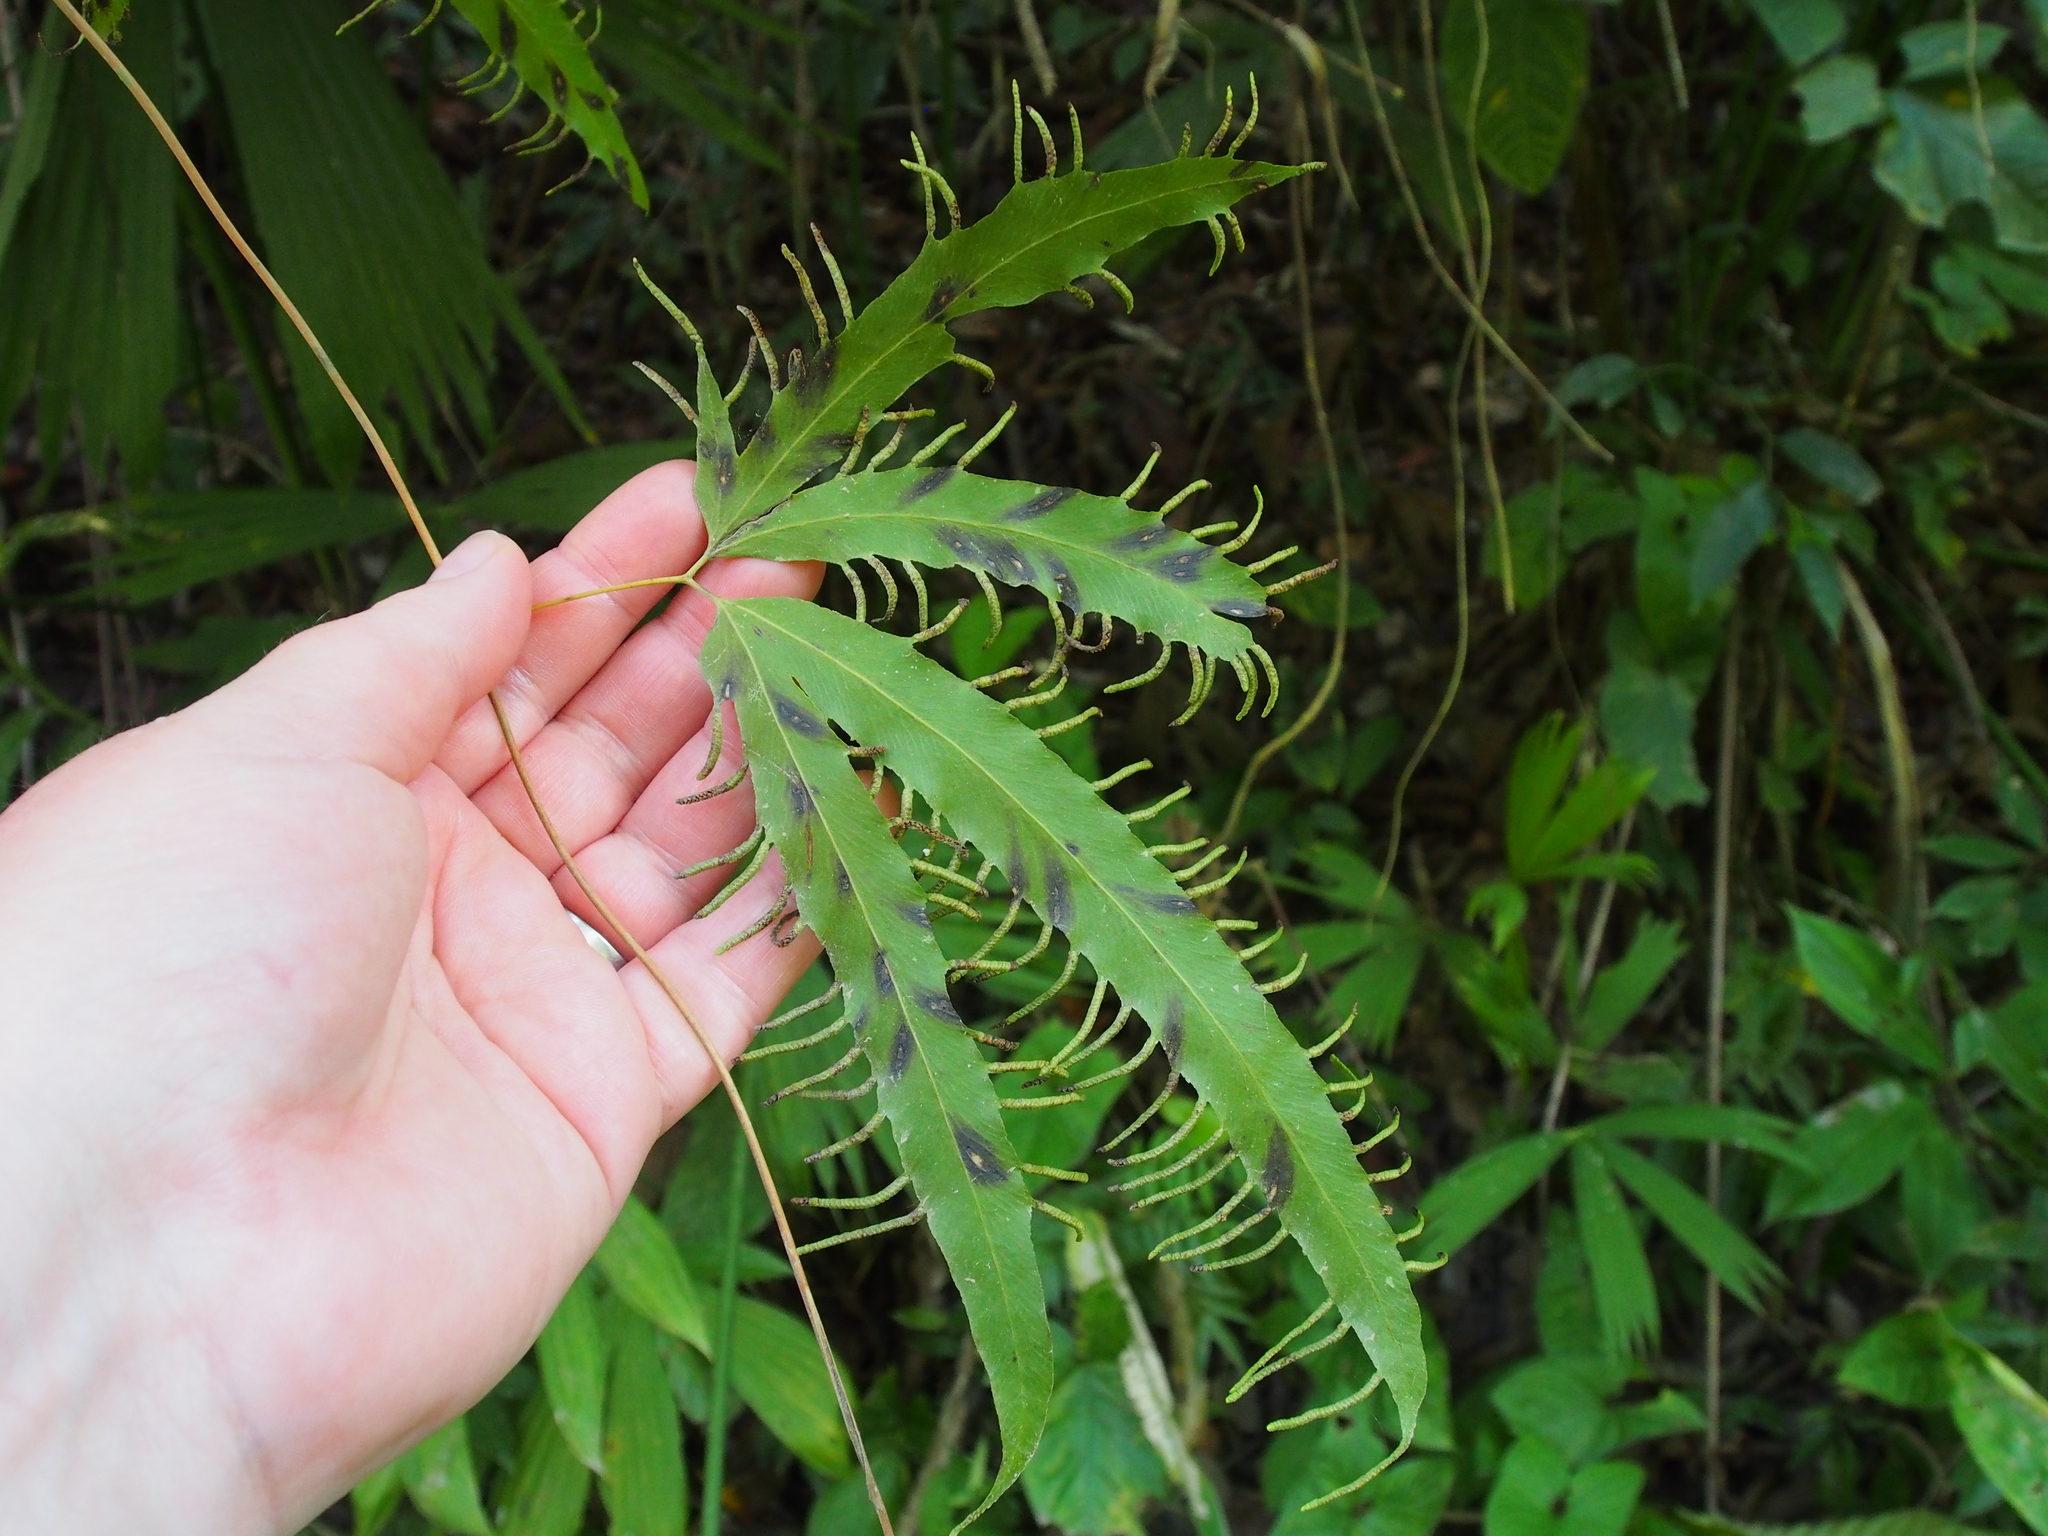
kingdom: Plantae
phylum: Tracheophyta
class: Polypodiopsida
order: Schizaeales
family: Lygodiaceae
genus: Lygodium
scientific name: Lygodium heterodoxum
